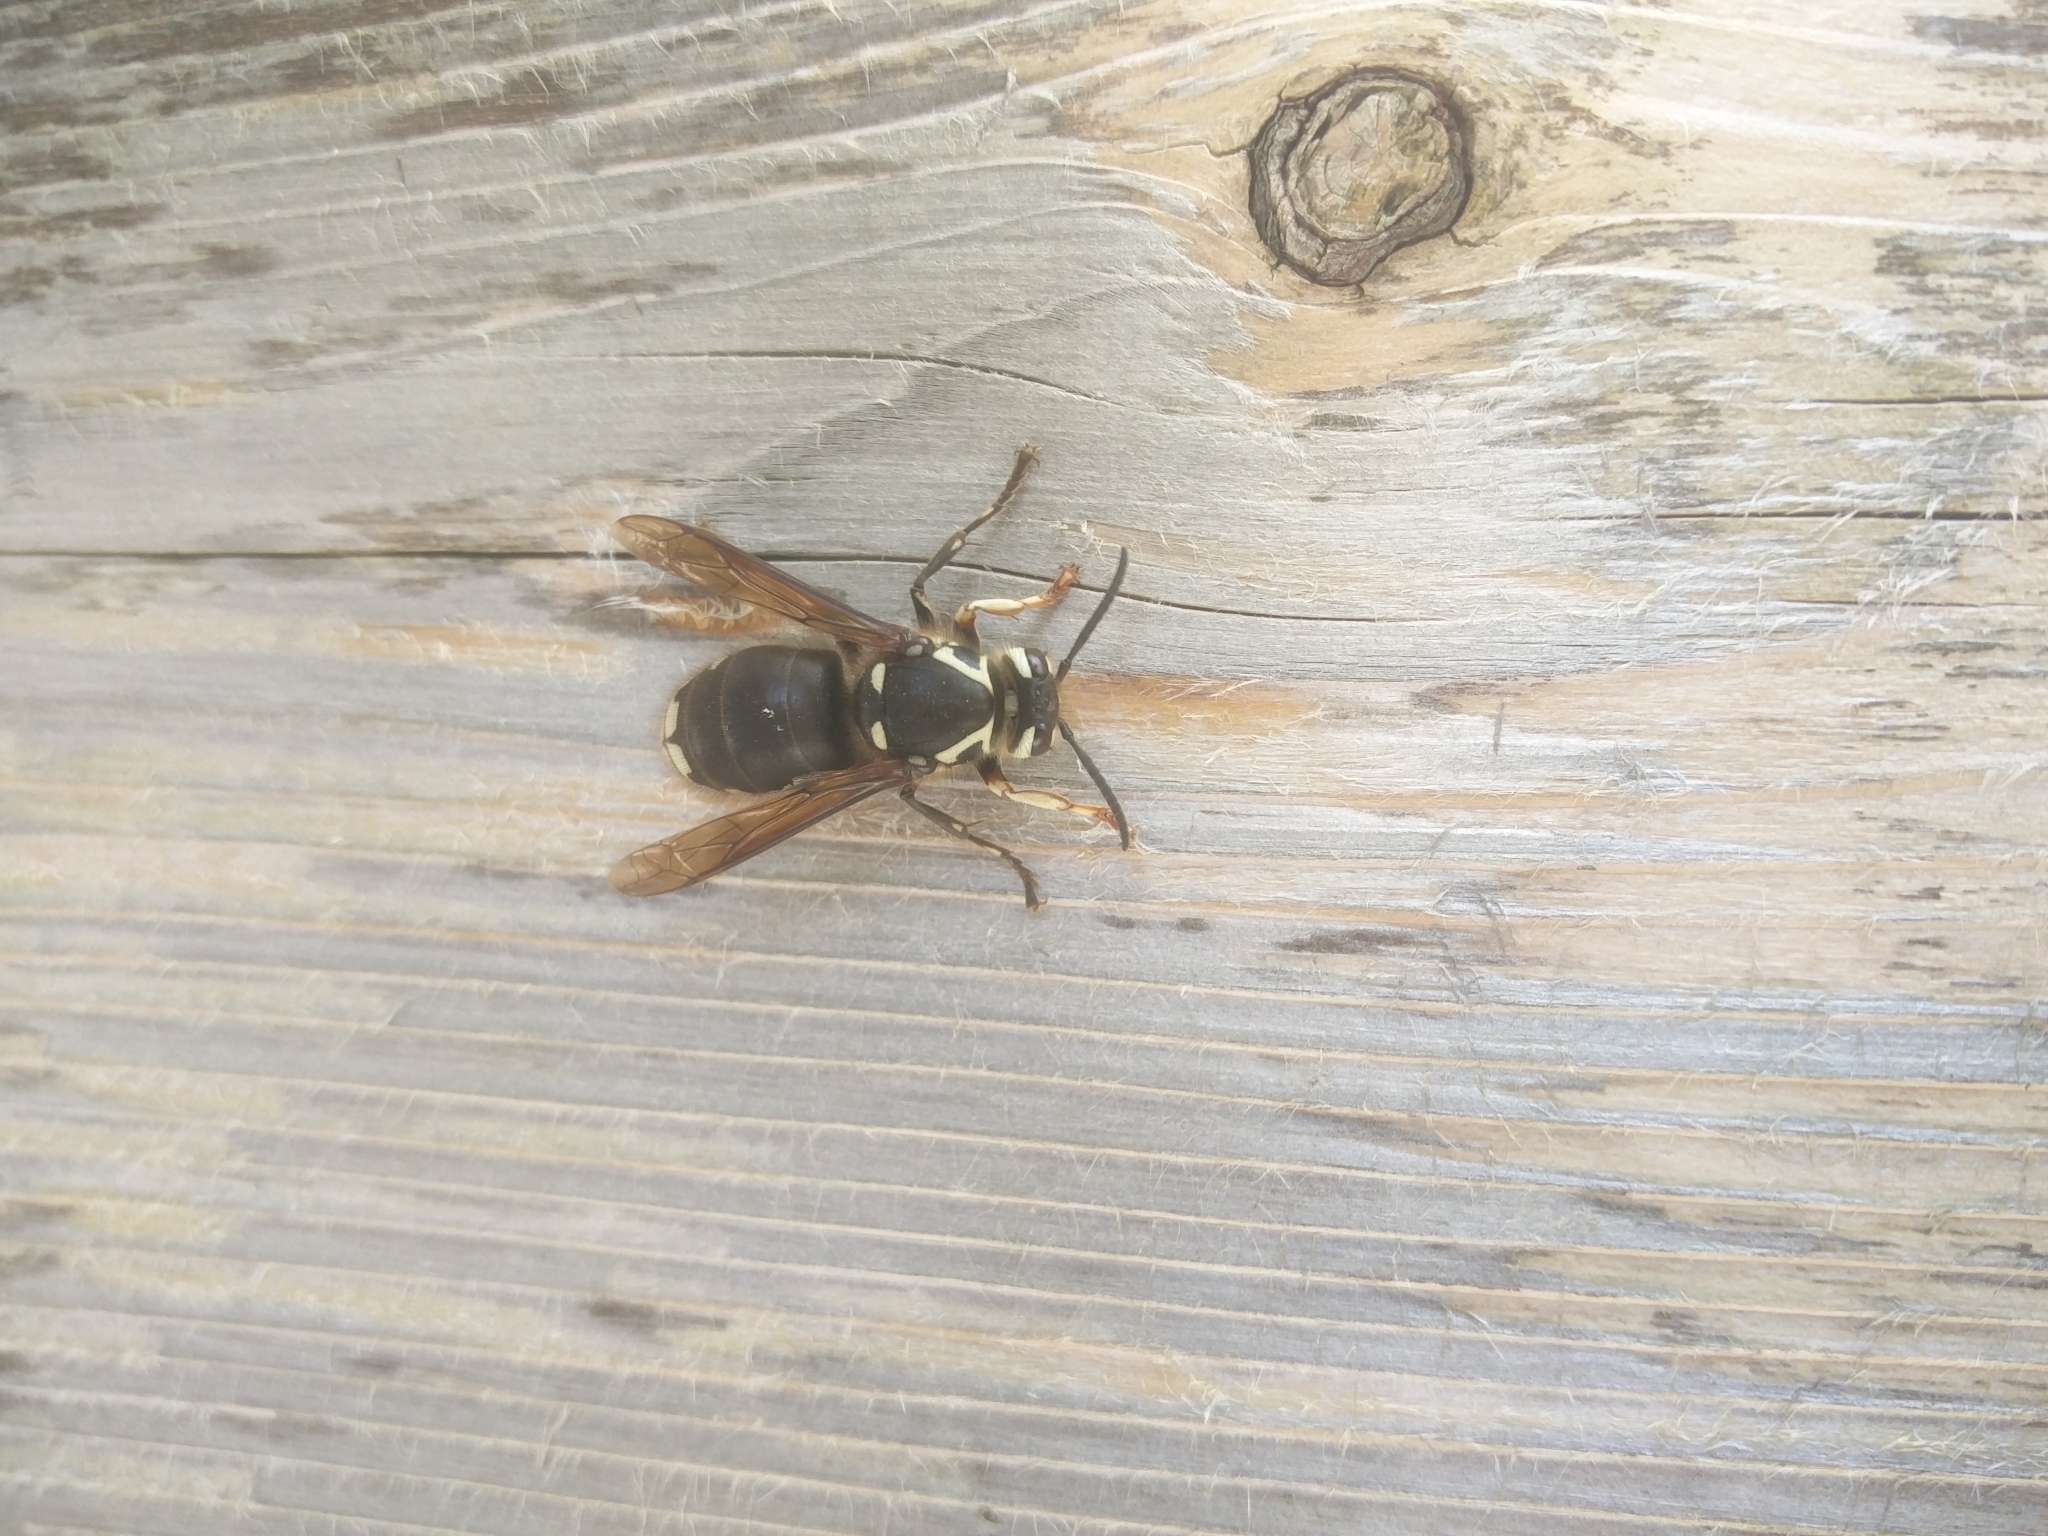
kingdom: Animalia
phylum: Arthropoda
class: Insecta
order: Hymenoptera
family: Vespidae
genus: Dolichovespula
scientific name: Dolichovespula maculata
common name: Bald-faced hornet
